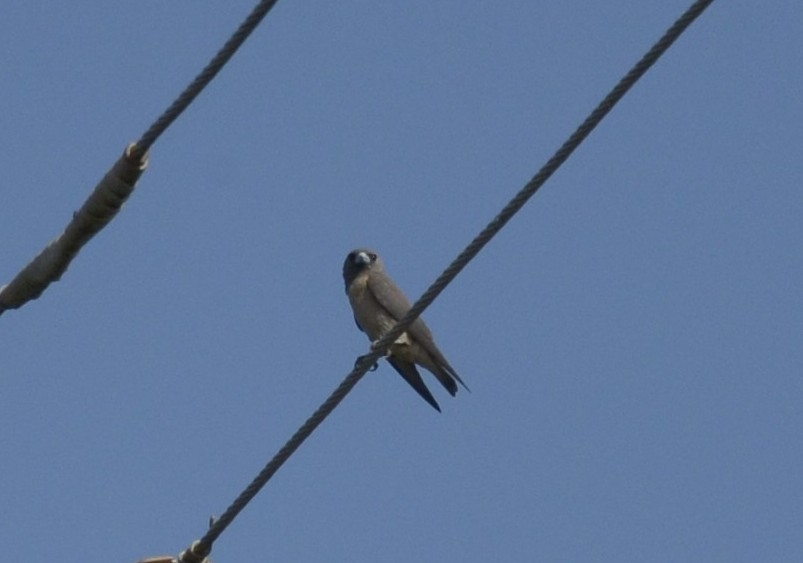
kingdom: Animalia
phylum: Chordata
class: Aves
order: Passeriformes
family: Artamidae
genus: Artamus
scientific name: Artamus fuscus
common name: Ashy woodswallow
